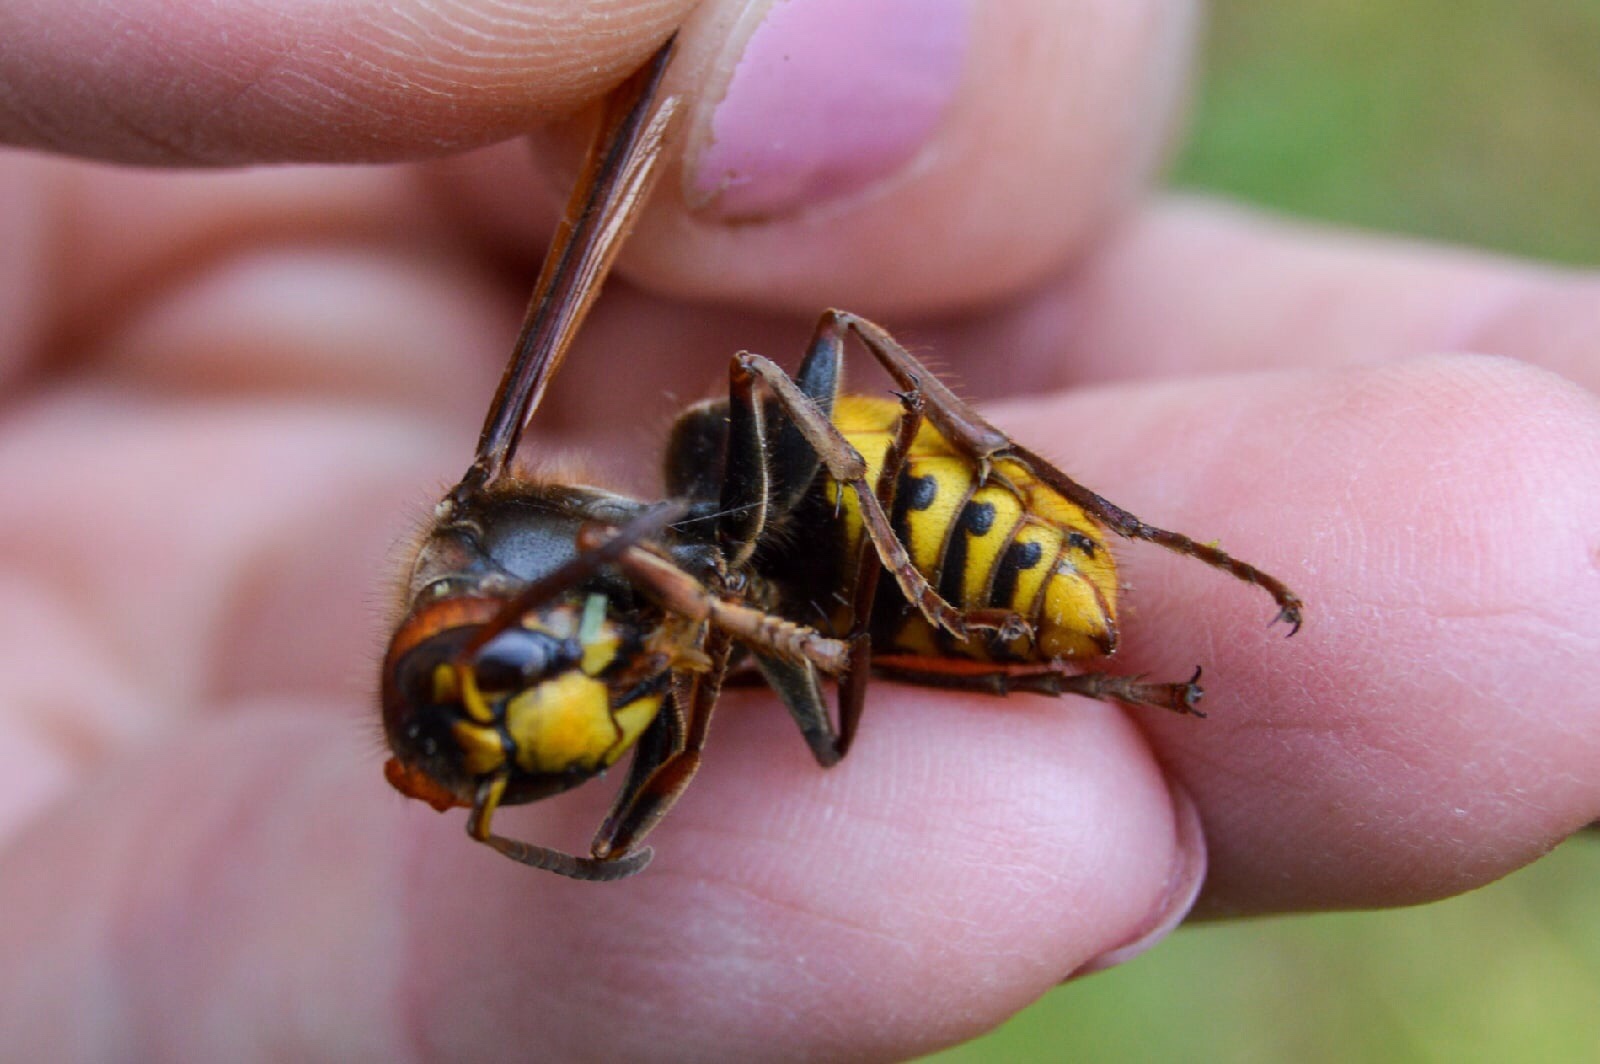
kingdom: Animalia
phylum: Arthropoda
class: Insecta
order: Hymenoptera
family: Vespidae
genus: Vespa
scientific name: Vespa crabro
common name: Hornet
